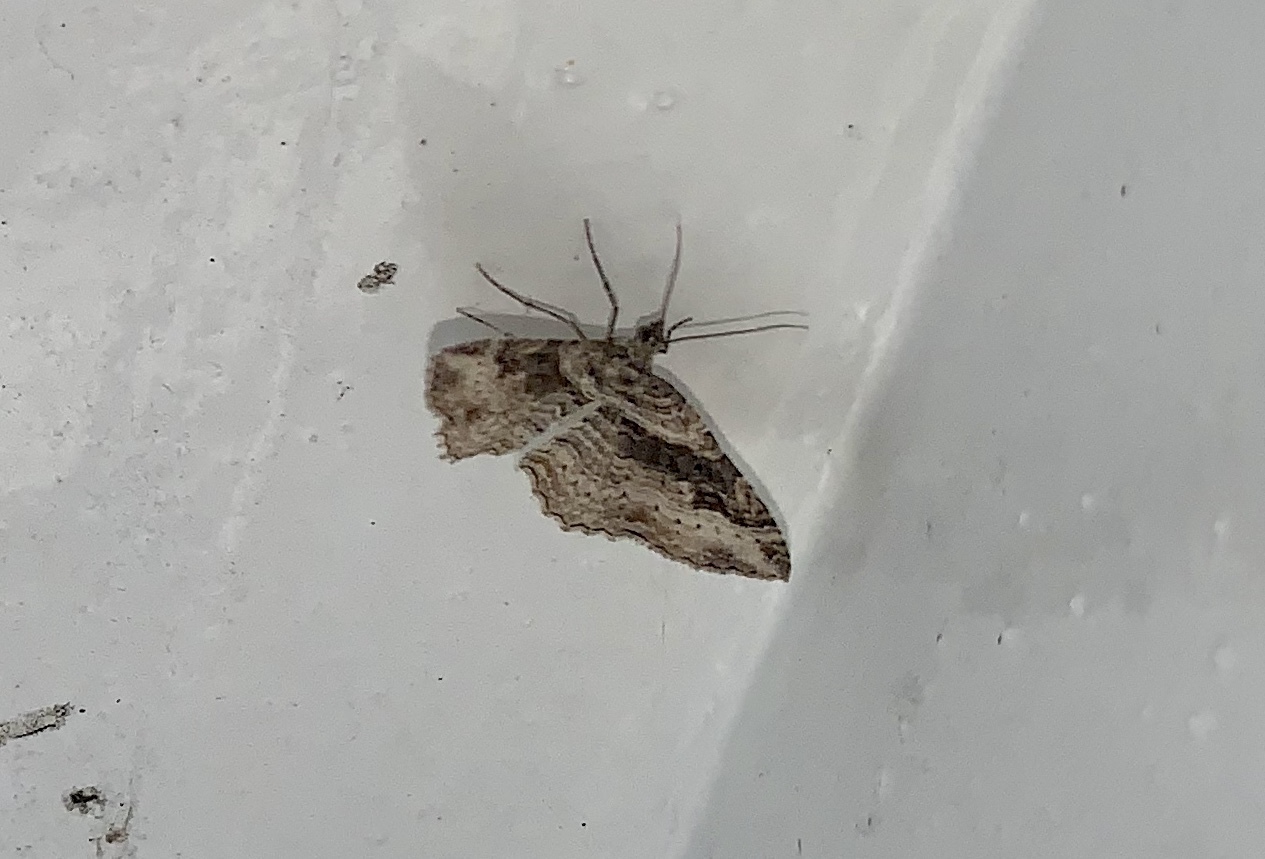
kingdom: Animalia
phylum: Arthropoda
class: Insecta
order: Lepidoptera
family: Geometridae
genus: Costaconvexa
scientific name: Costaconvexa centrostrigaria
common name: Bent-line carpet
